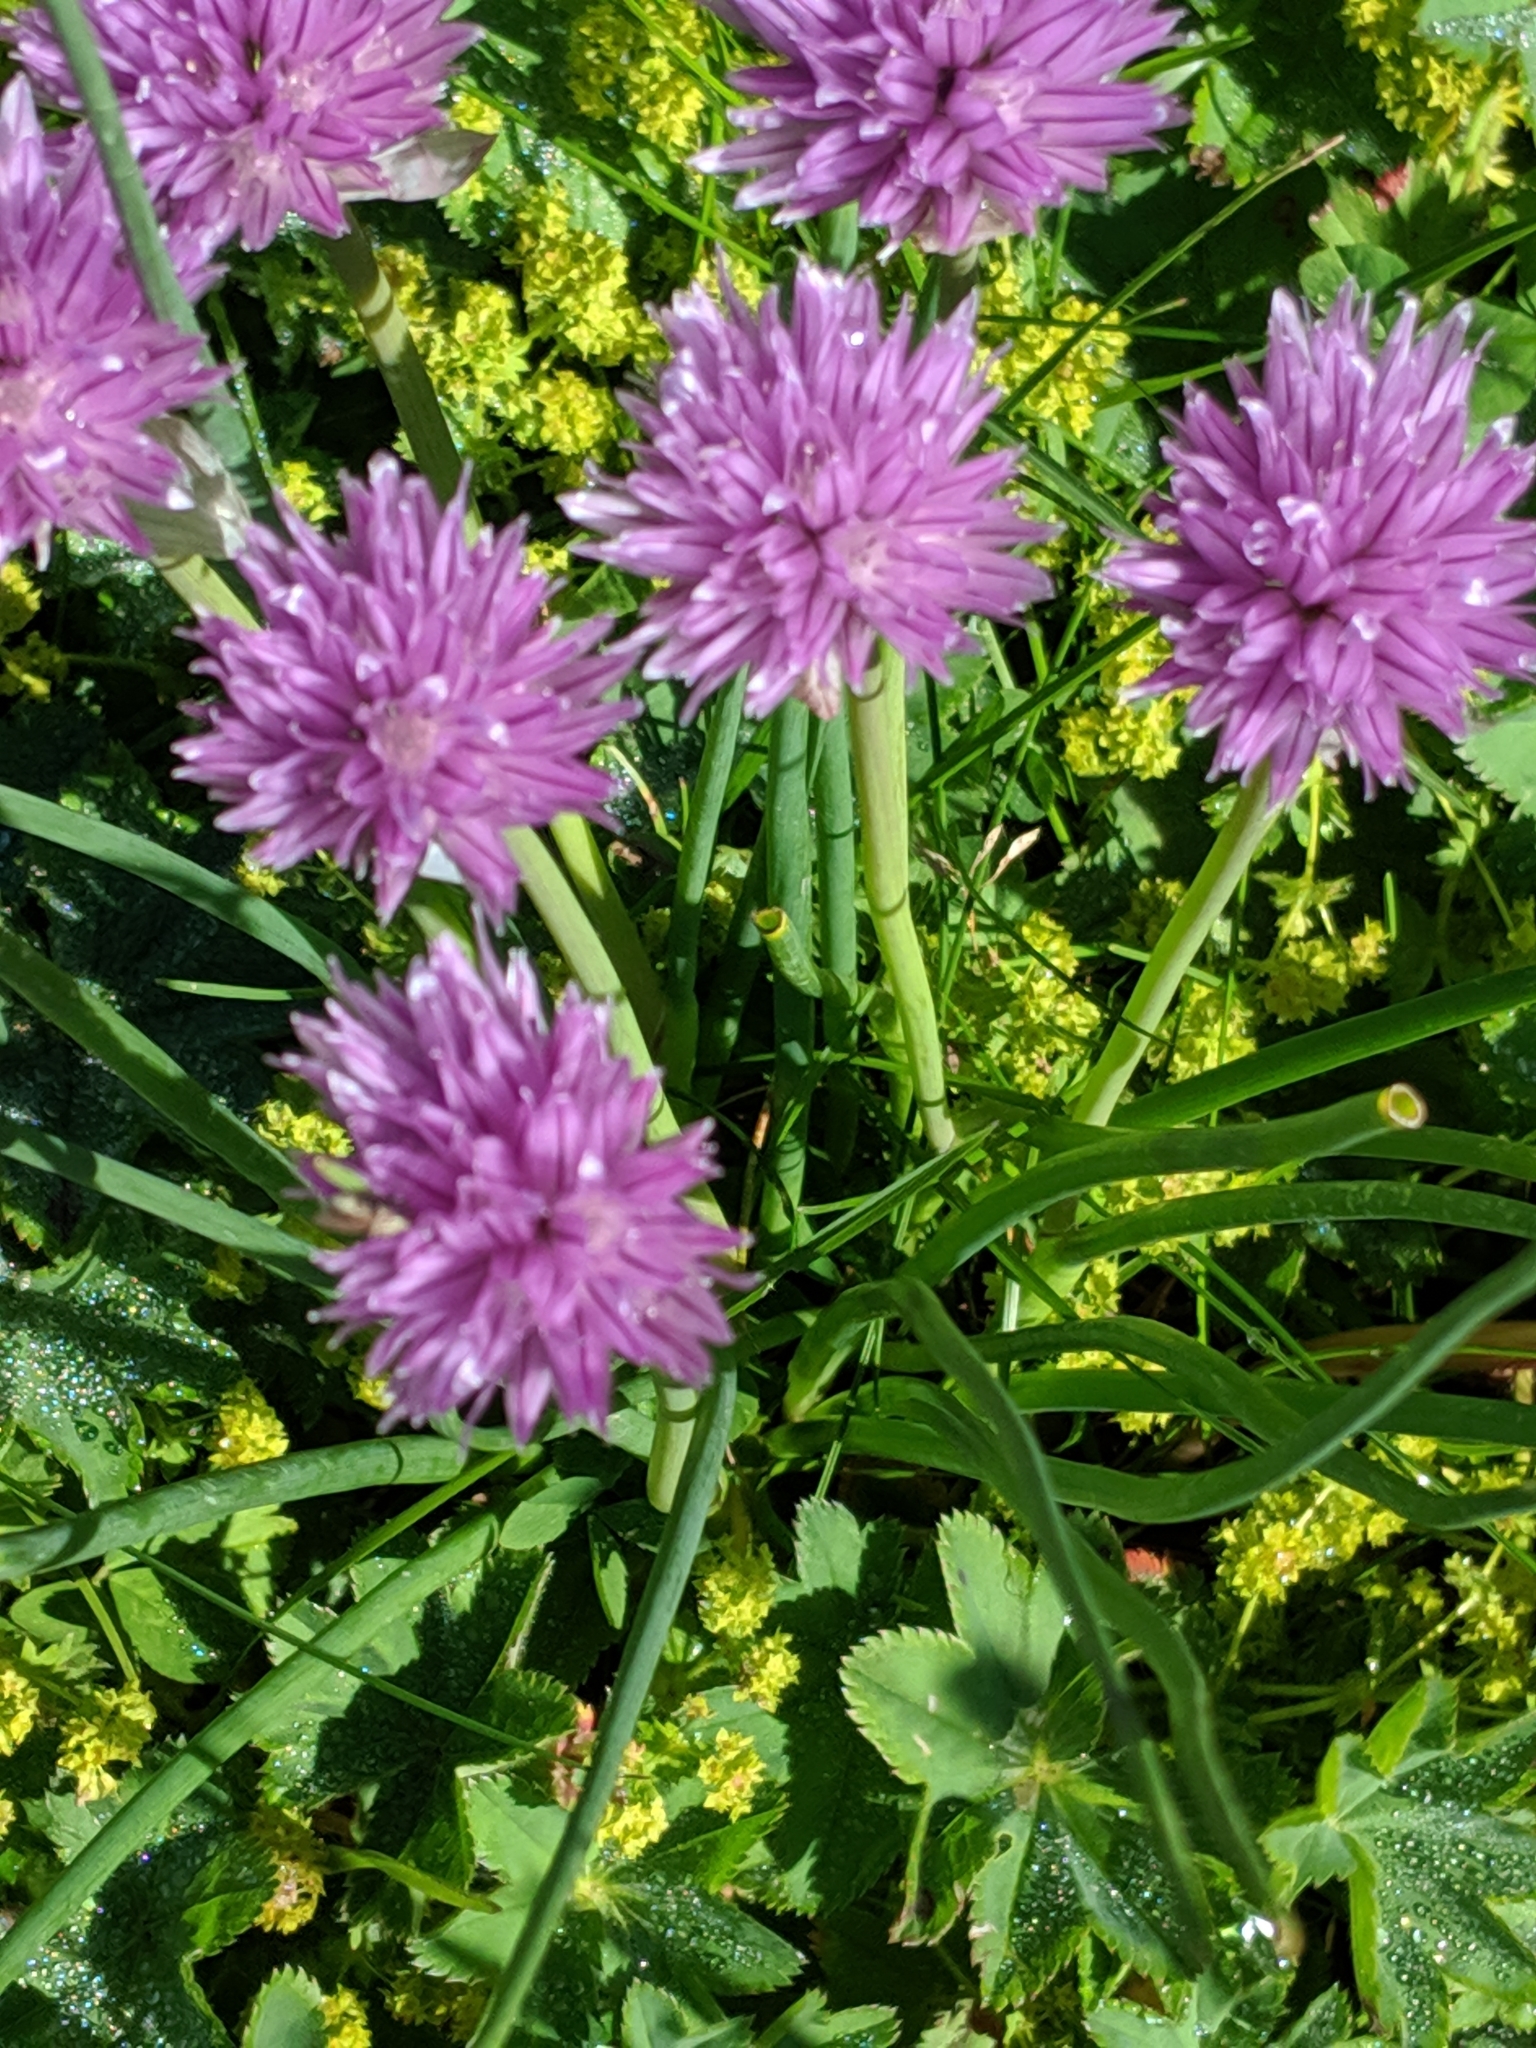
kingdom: Plantae
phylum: Tracheophyta
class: Liliopsida
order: Asparagales
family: Amaryllidaceae
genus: Allium
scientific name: Allium schoenoprasum
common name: Chives
